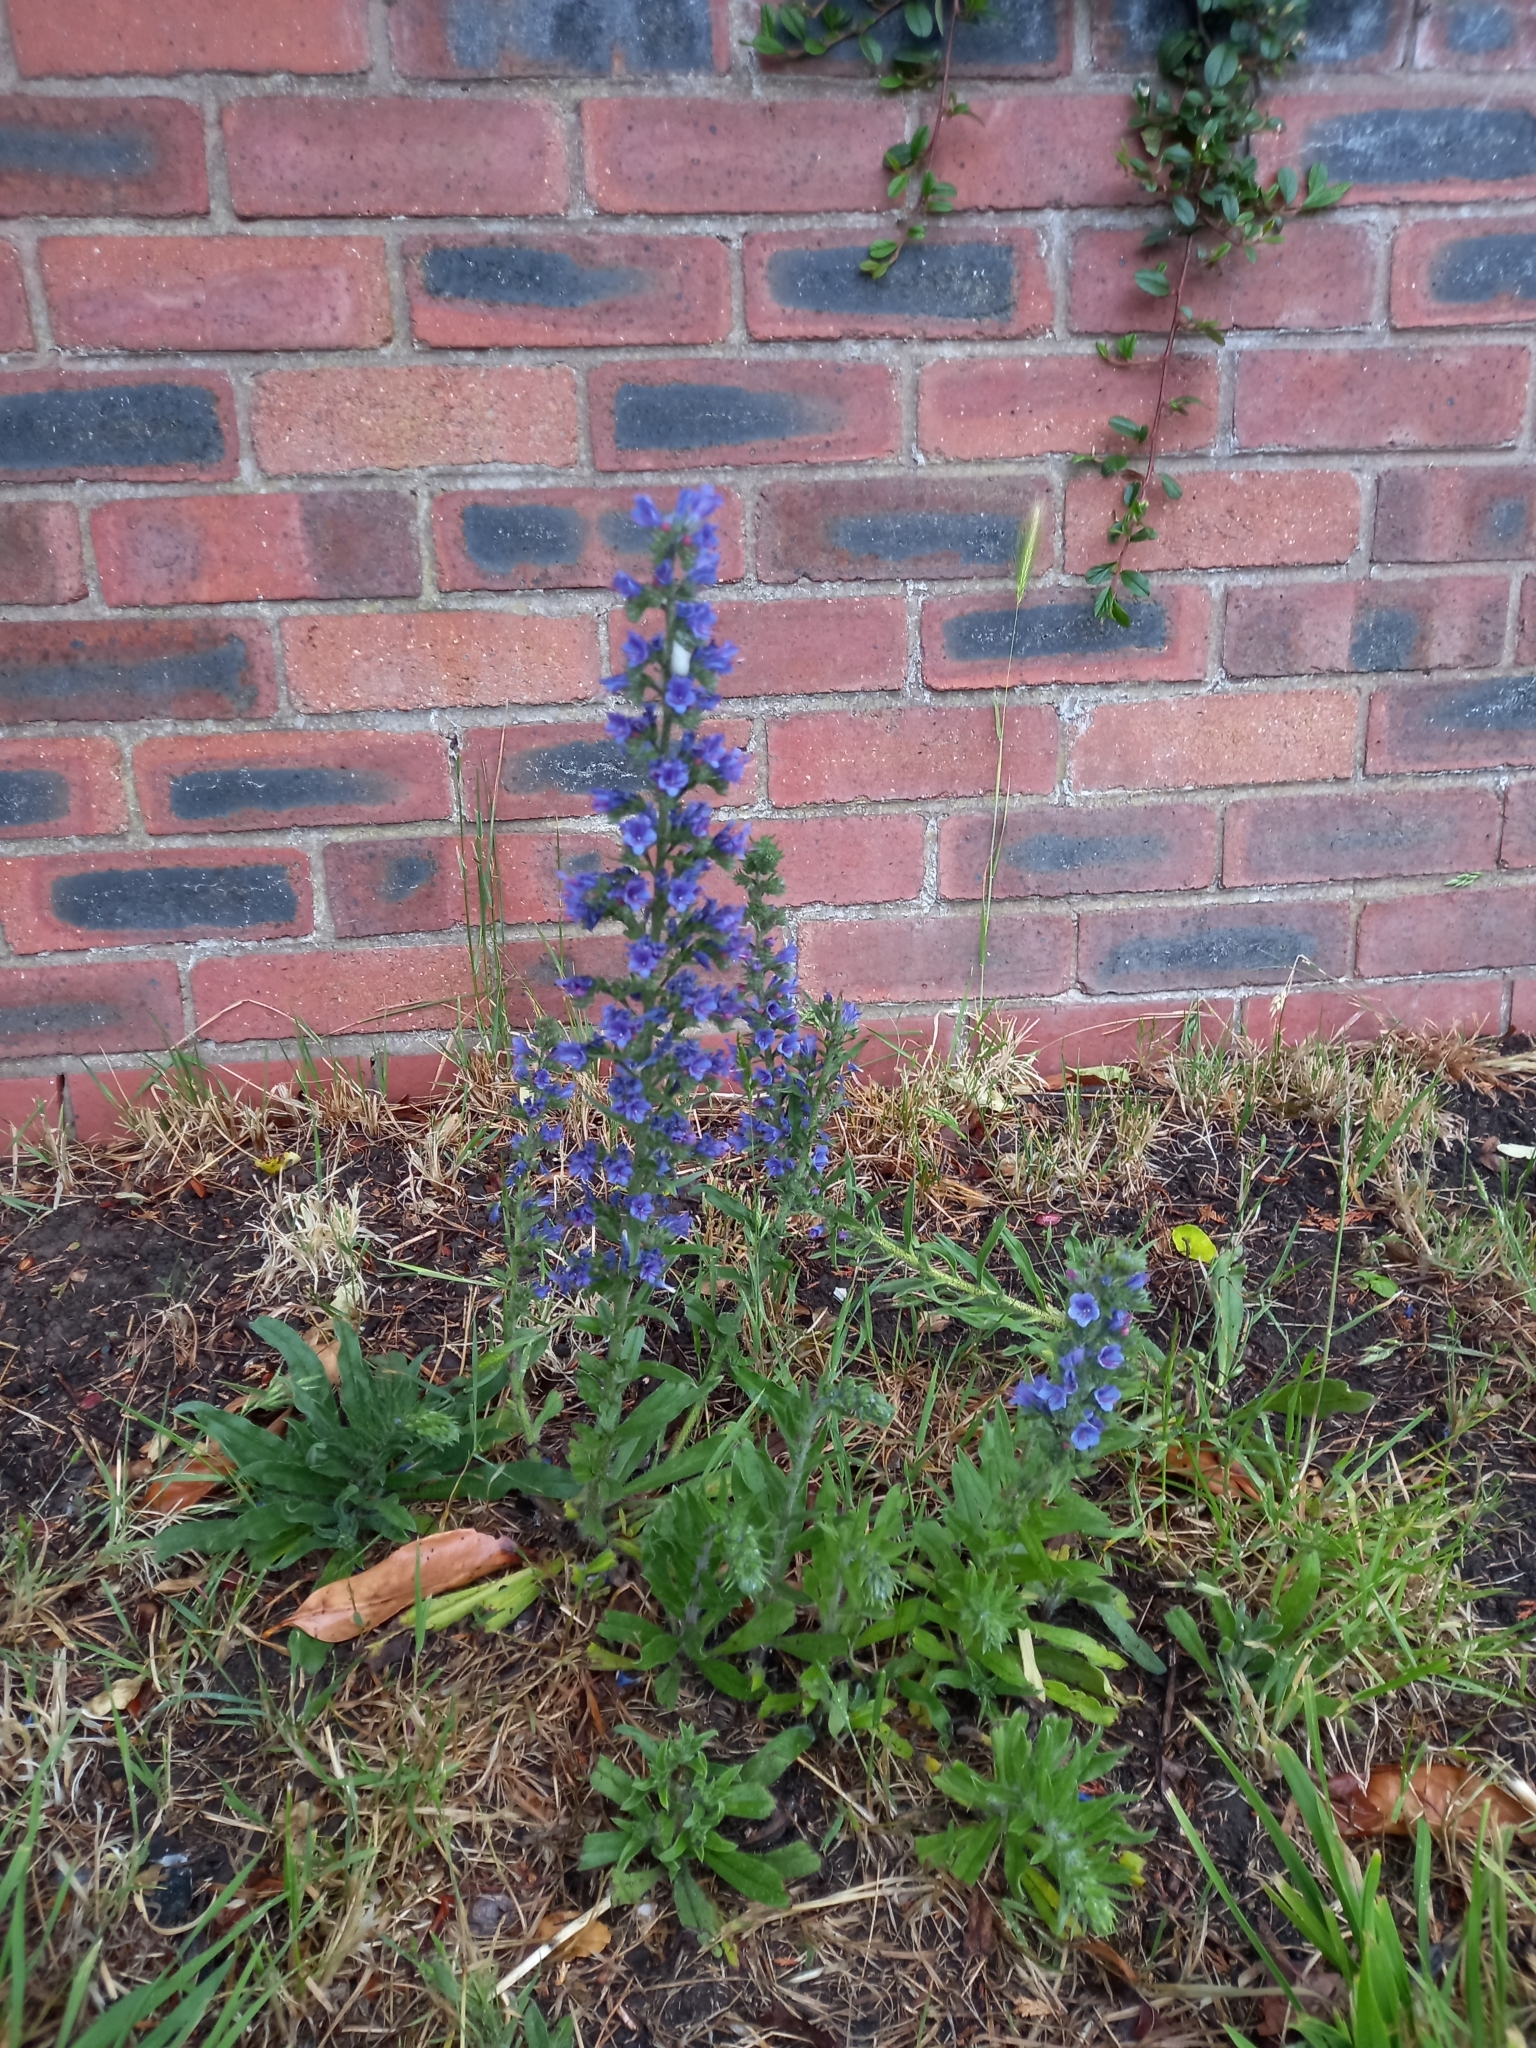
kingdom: Plantae
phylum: Tracheophyta
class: Magnoliopsida
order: Boraginales
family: Boraginaceae
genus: Echium
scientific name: Echium vulgare
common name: Common viper's bugloss
